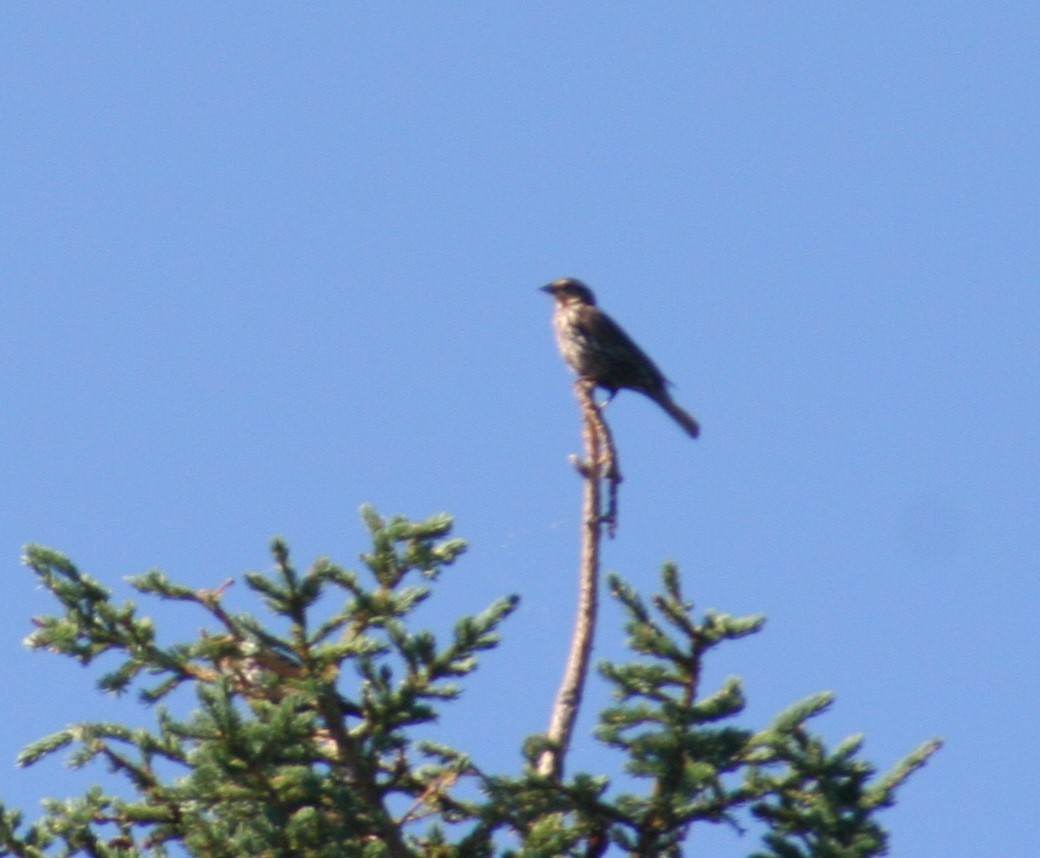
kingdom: Animalia
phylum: Chordata
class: Aves
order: Passeriformes
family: Icteridae
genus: Agelaius
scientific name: Agelaius phoeniceus
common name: Red-winged blackbird
